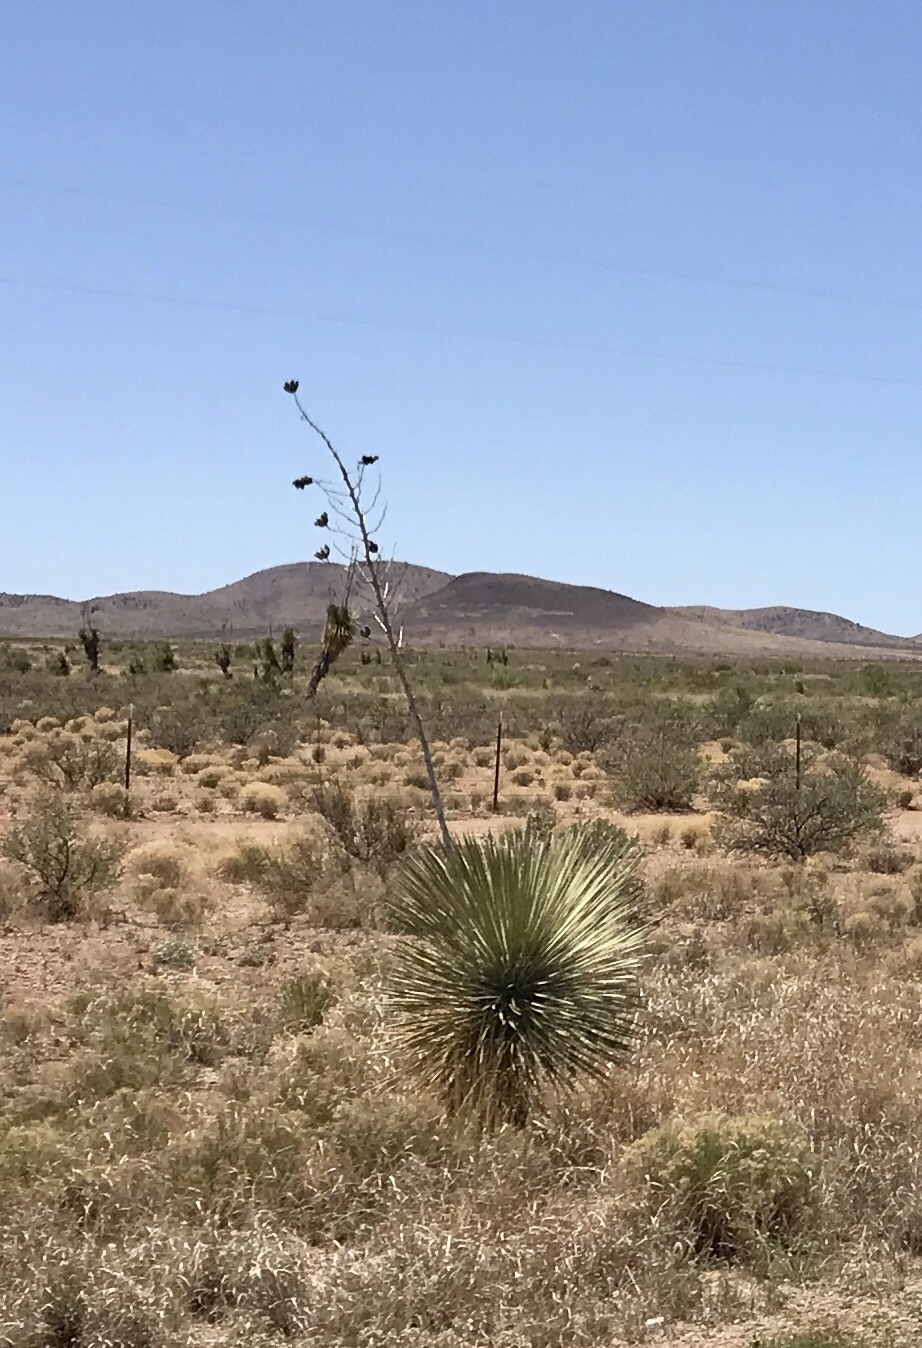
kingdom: Plantae
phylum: Tracheophyta
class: Liliopsida
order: Asparagales
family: Asparagaceae
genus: Yucca
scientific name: Yucca elata
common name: Palmella
